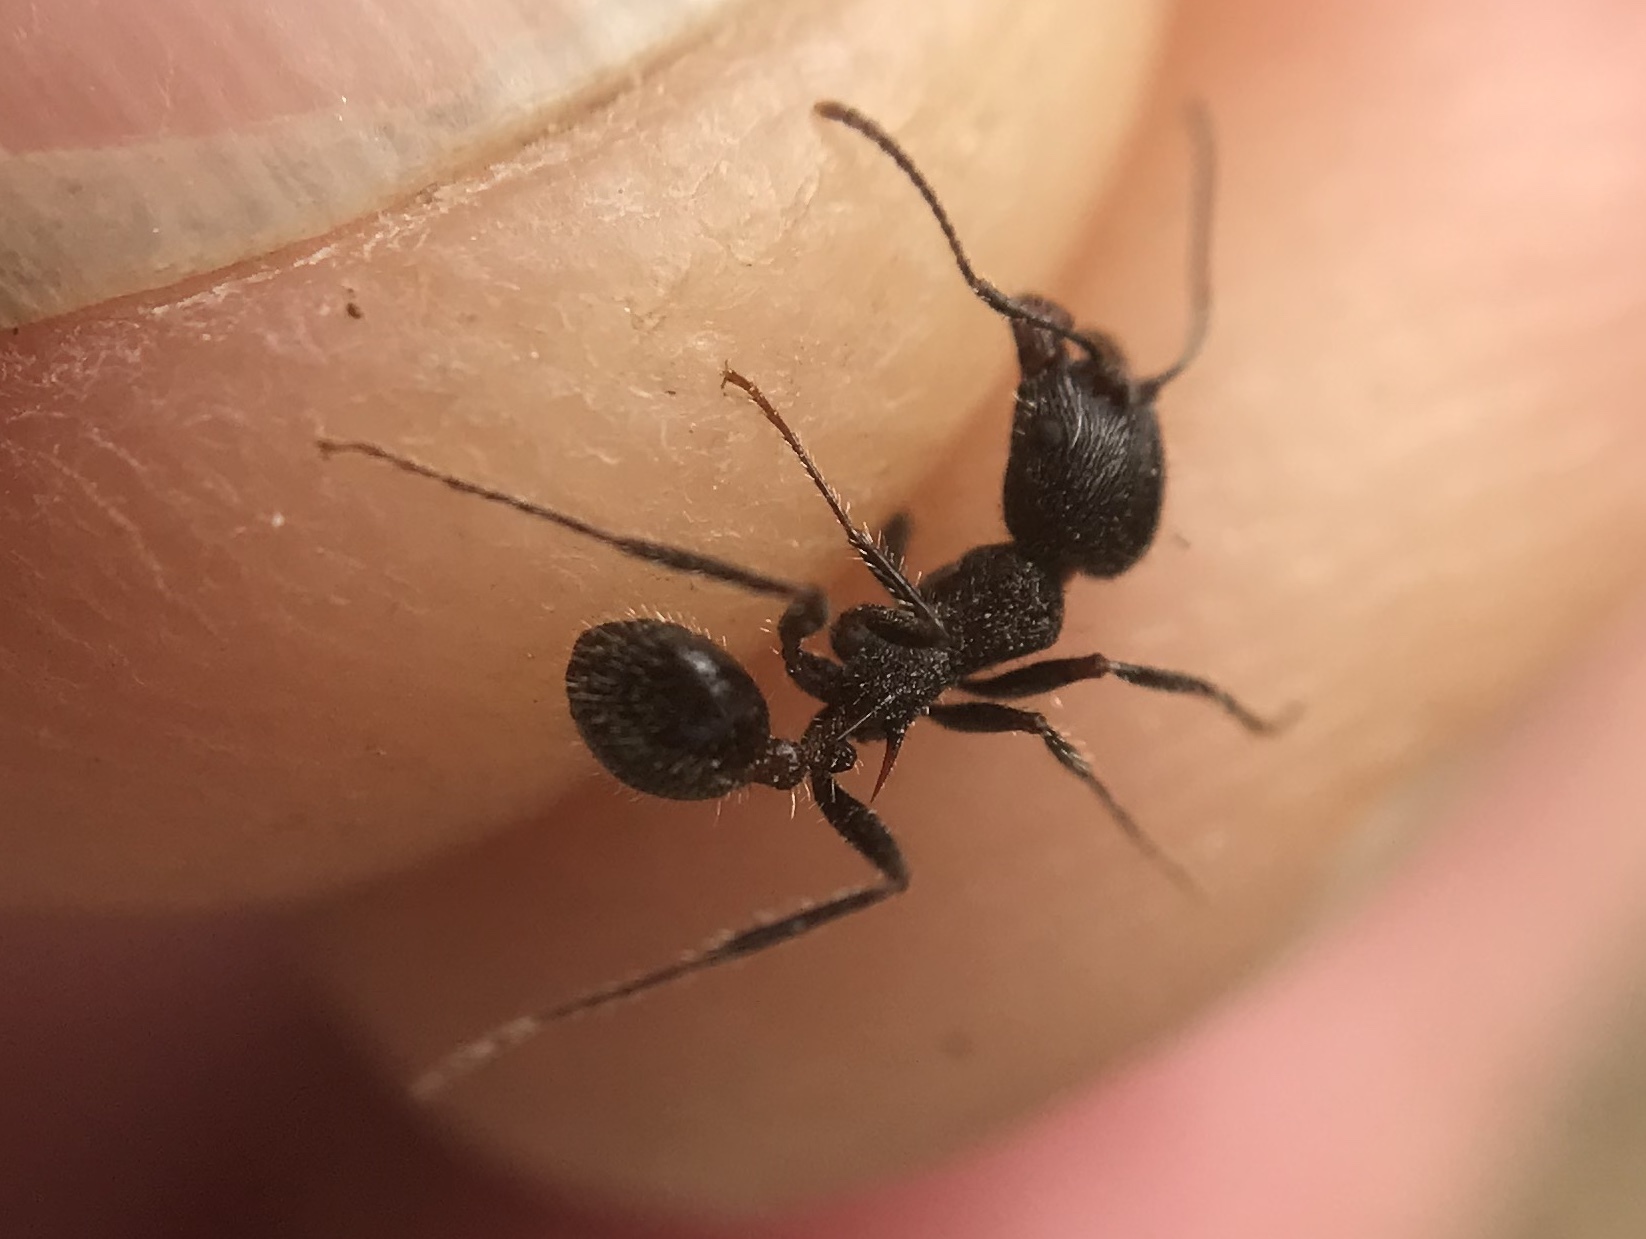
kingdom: Animalia
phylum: Arthropoda
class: Insecta
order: Hymenoptera
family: Formicidae
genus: Veromessor
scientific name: Veromessor andrei
